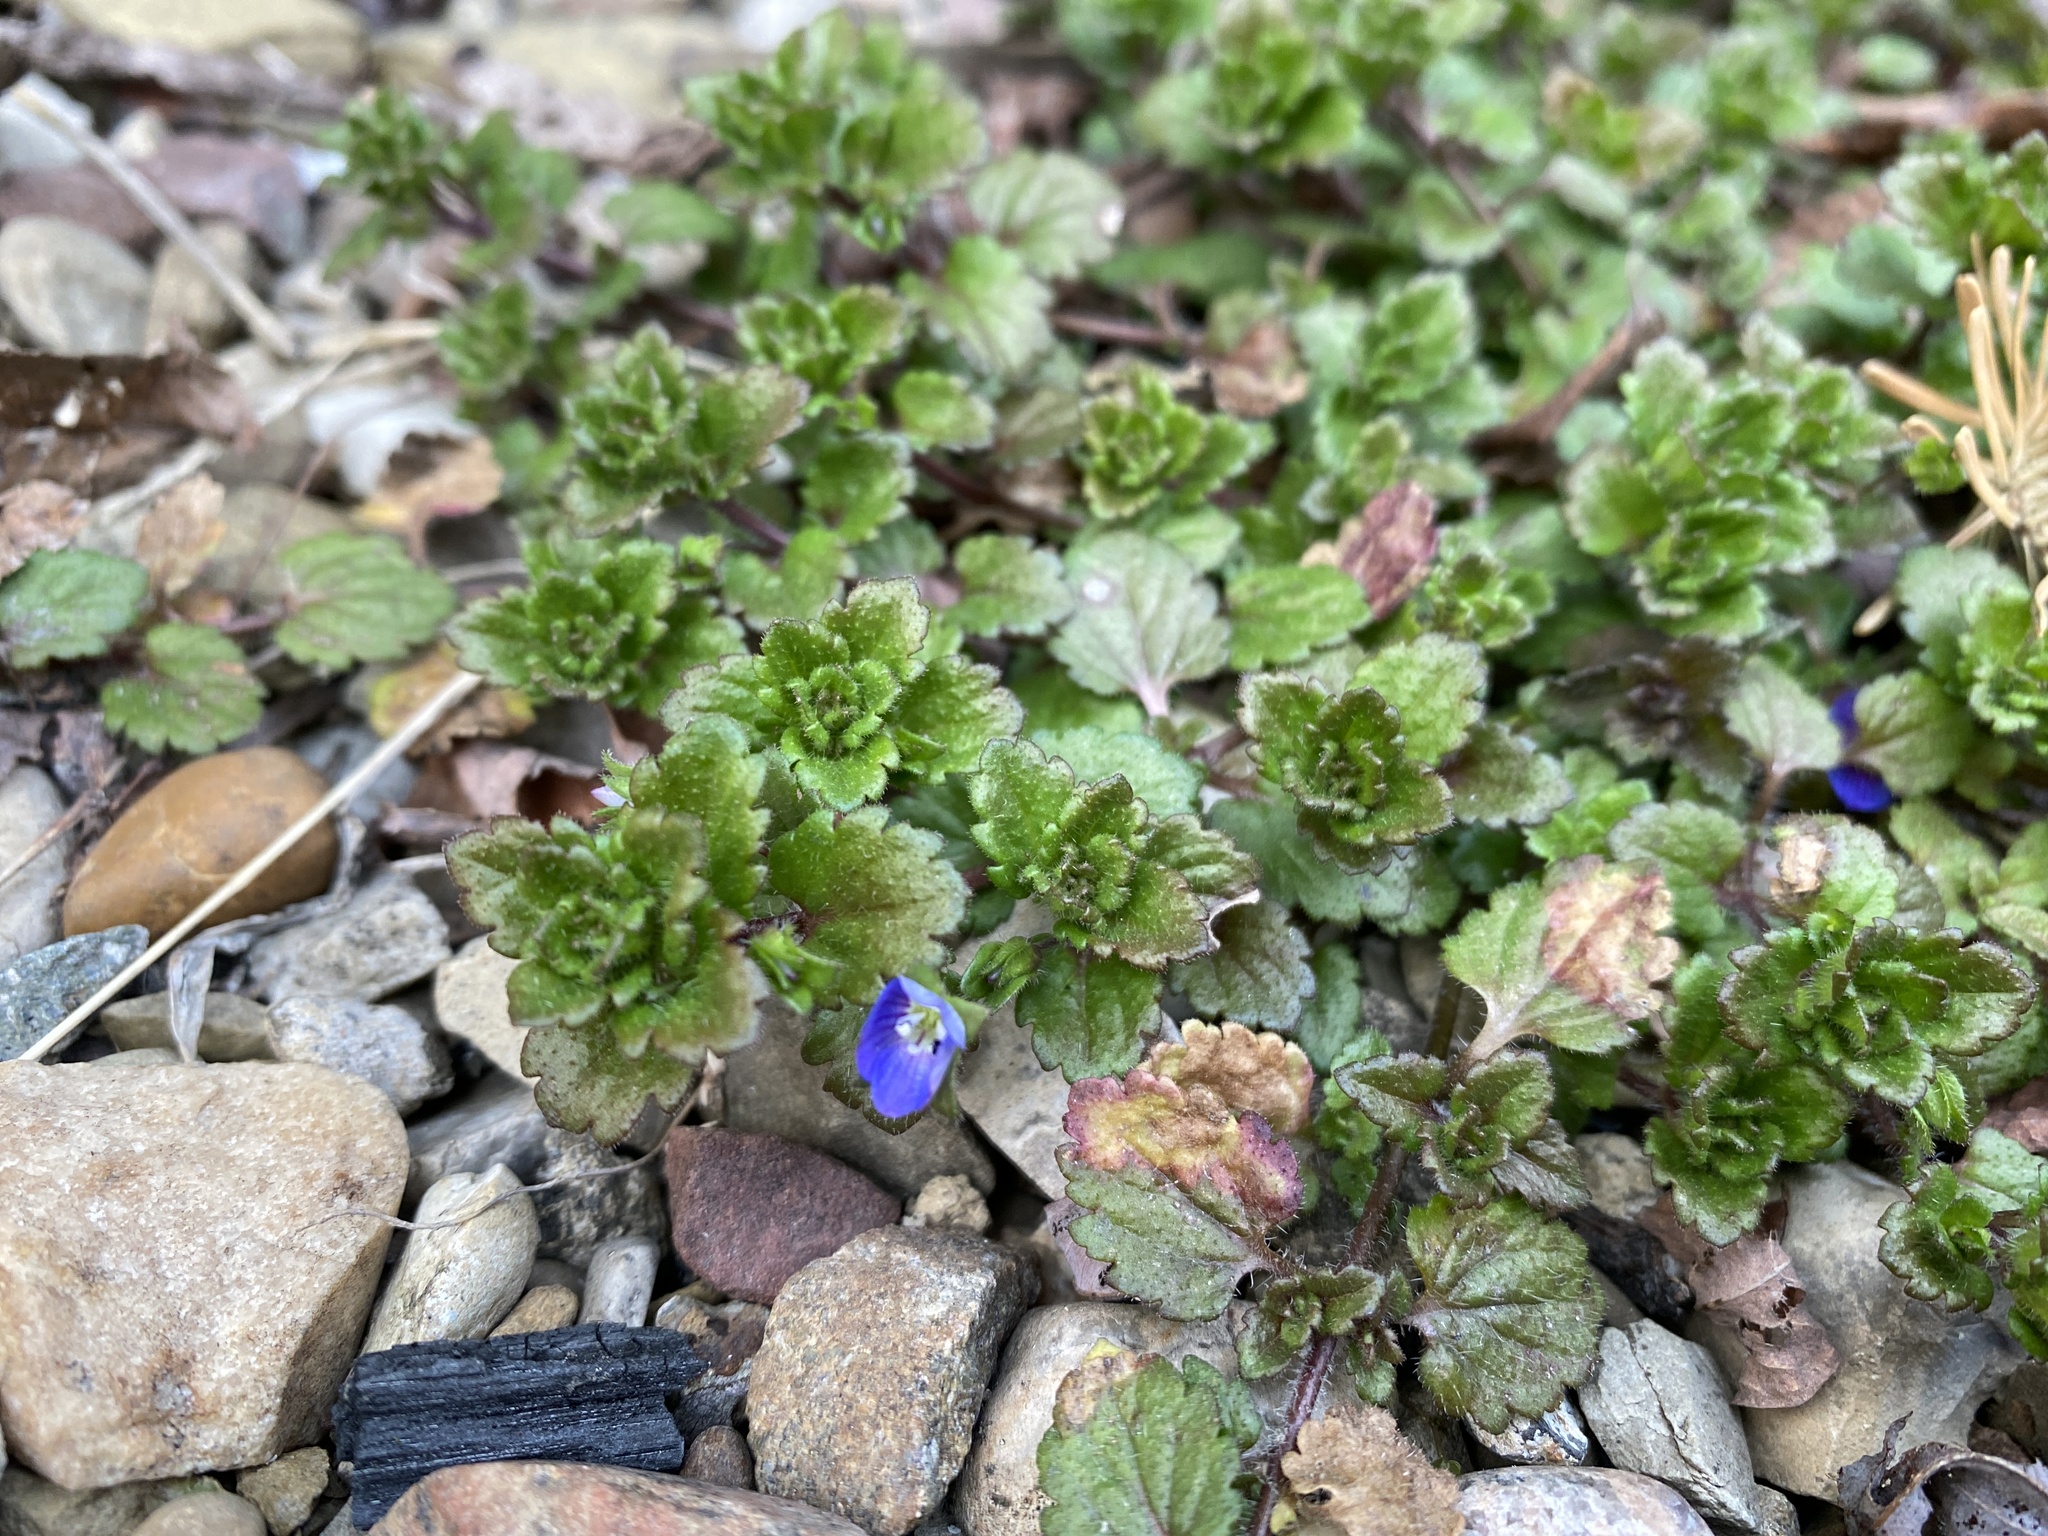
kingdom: Plantae
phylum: Tracheophyta
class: Magnoliopsida
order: Lamiales
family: Plantaginaceae
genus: Veronica
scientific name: Veronica persica
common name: Common field-speedwell
